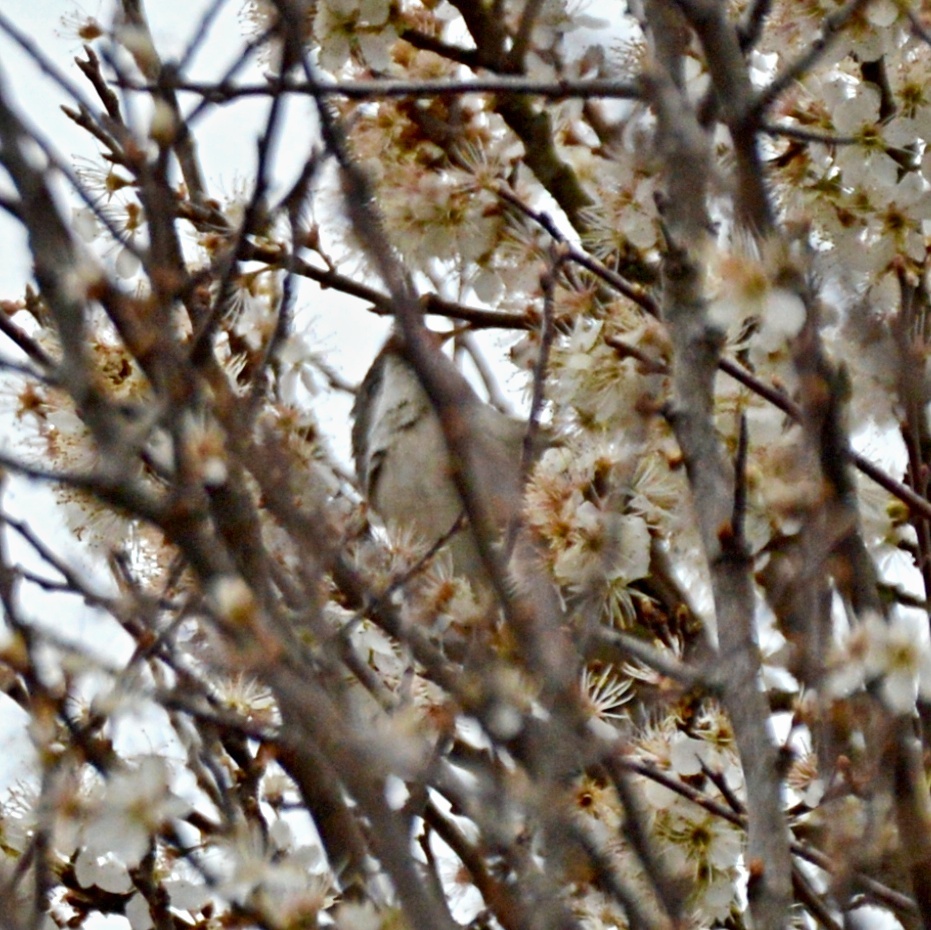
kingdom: Animalia
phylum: Chordata
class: Aves
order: Passeriformes
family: Sylviidae
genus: Sylvia
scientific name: Sylvia curruca
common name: Lesser whitethroat
